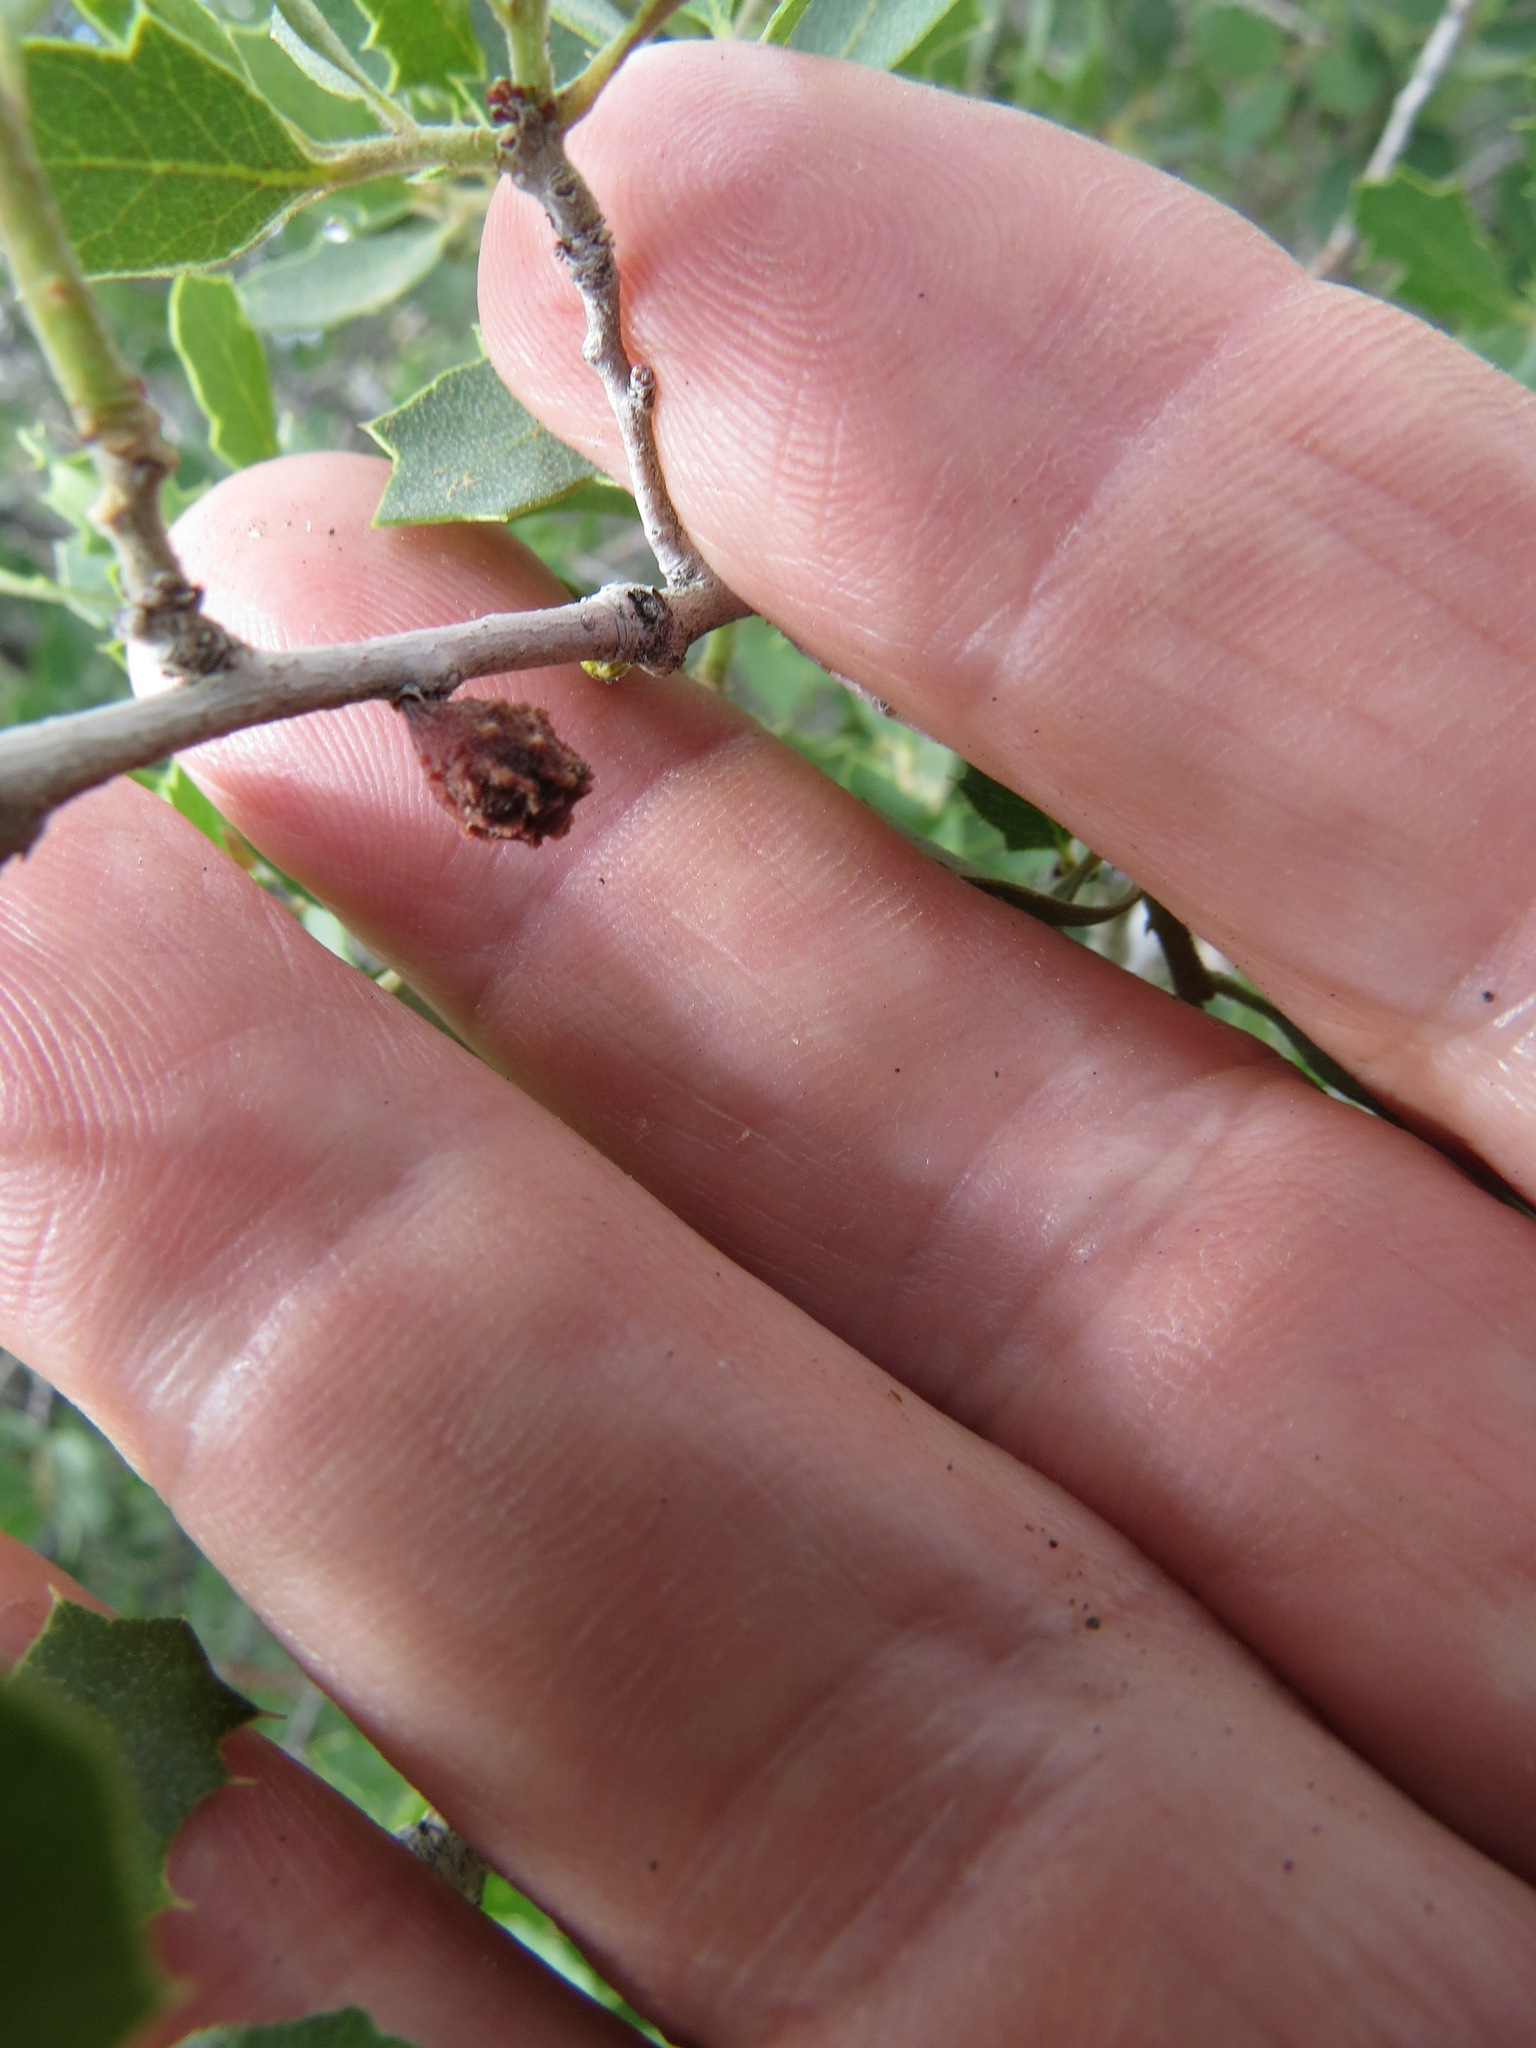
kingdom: Animalia
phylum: Arthropoda
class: Insecta
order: Hymenoptera
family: Cynipidae
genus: Cynips
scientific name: Cynips douglasi
